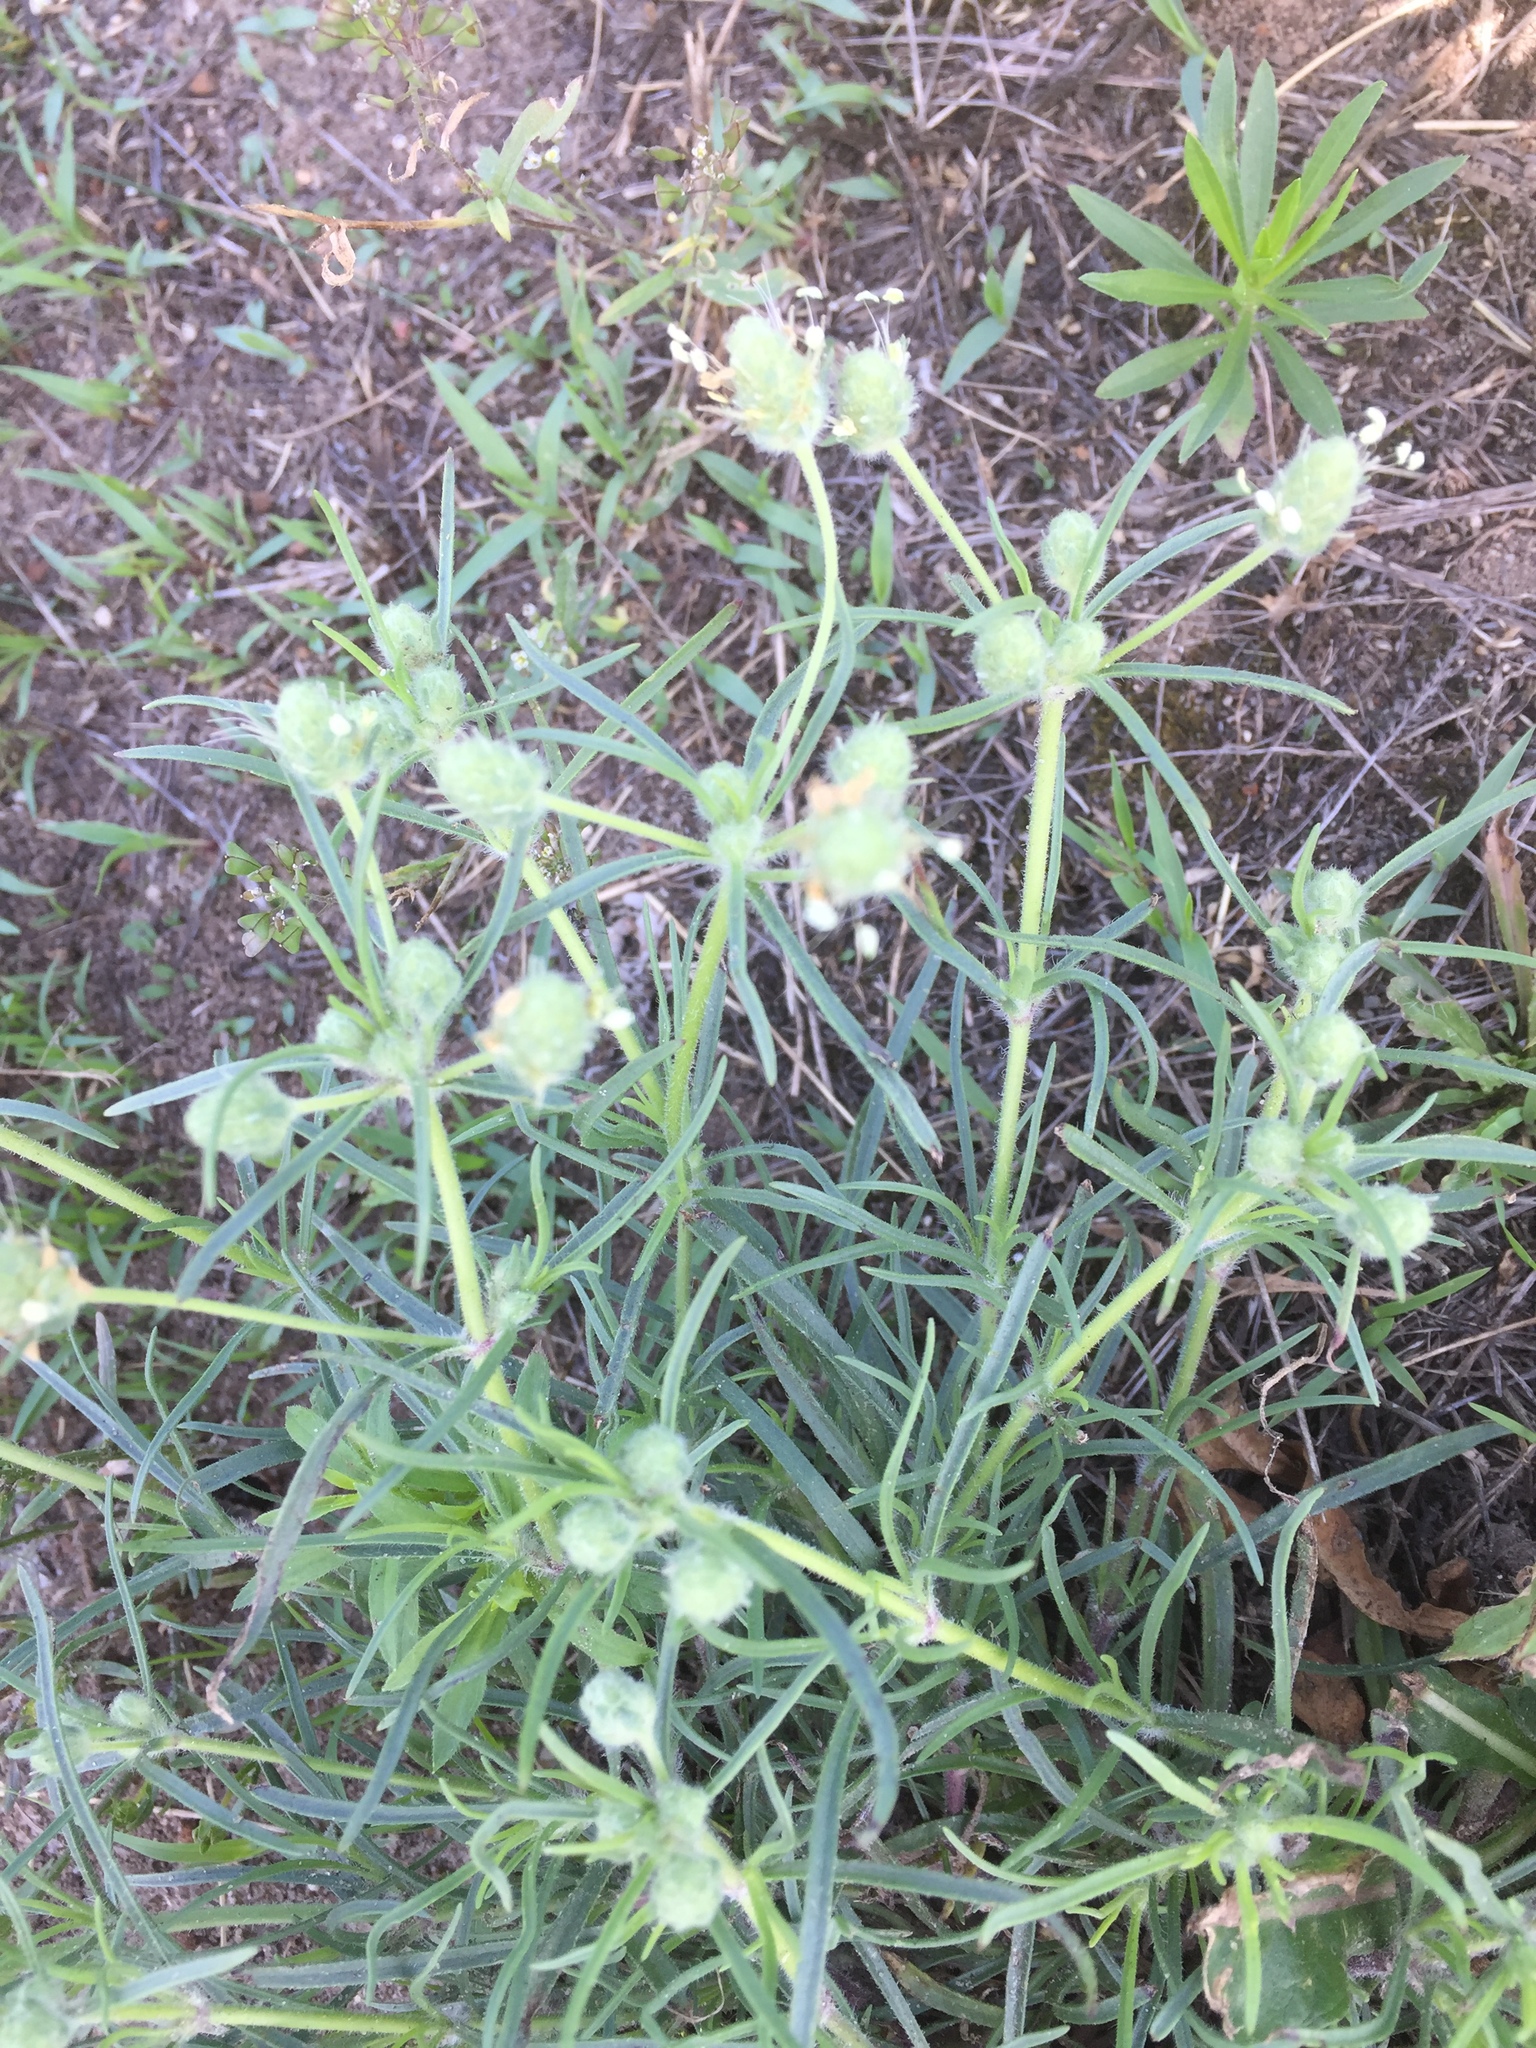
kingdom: Plantae
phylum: Tracheophyta
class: Magnoliopsida
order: Lamiales
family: Plantaginaceae
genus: Plantago
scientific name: Plantago arenaria
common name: Branched plantain
